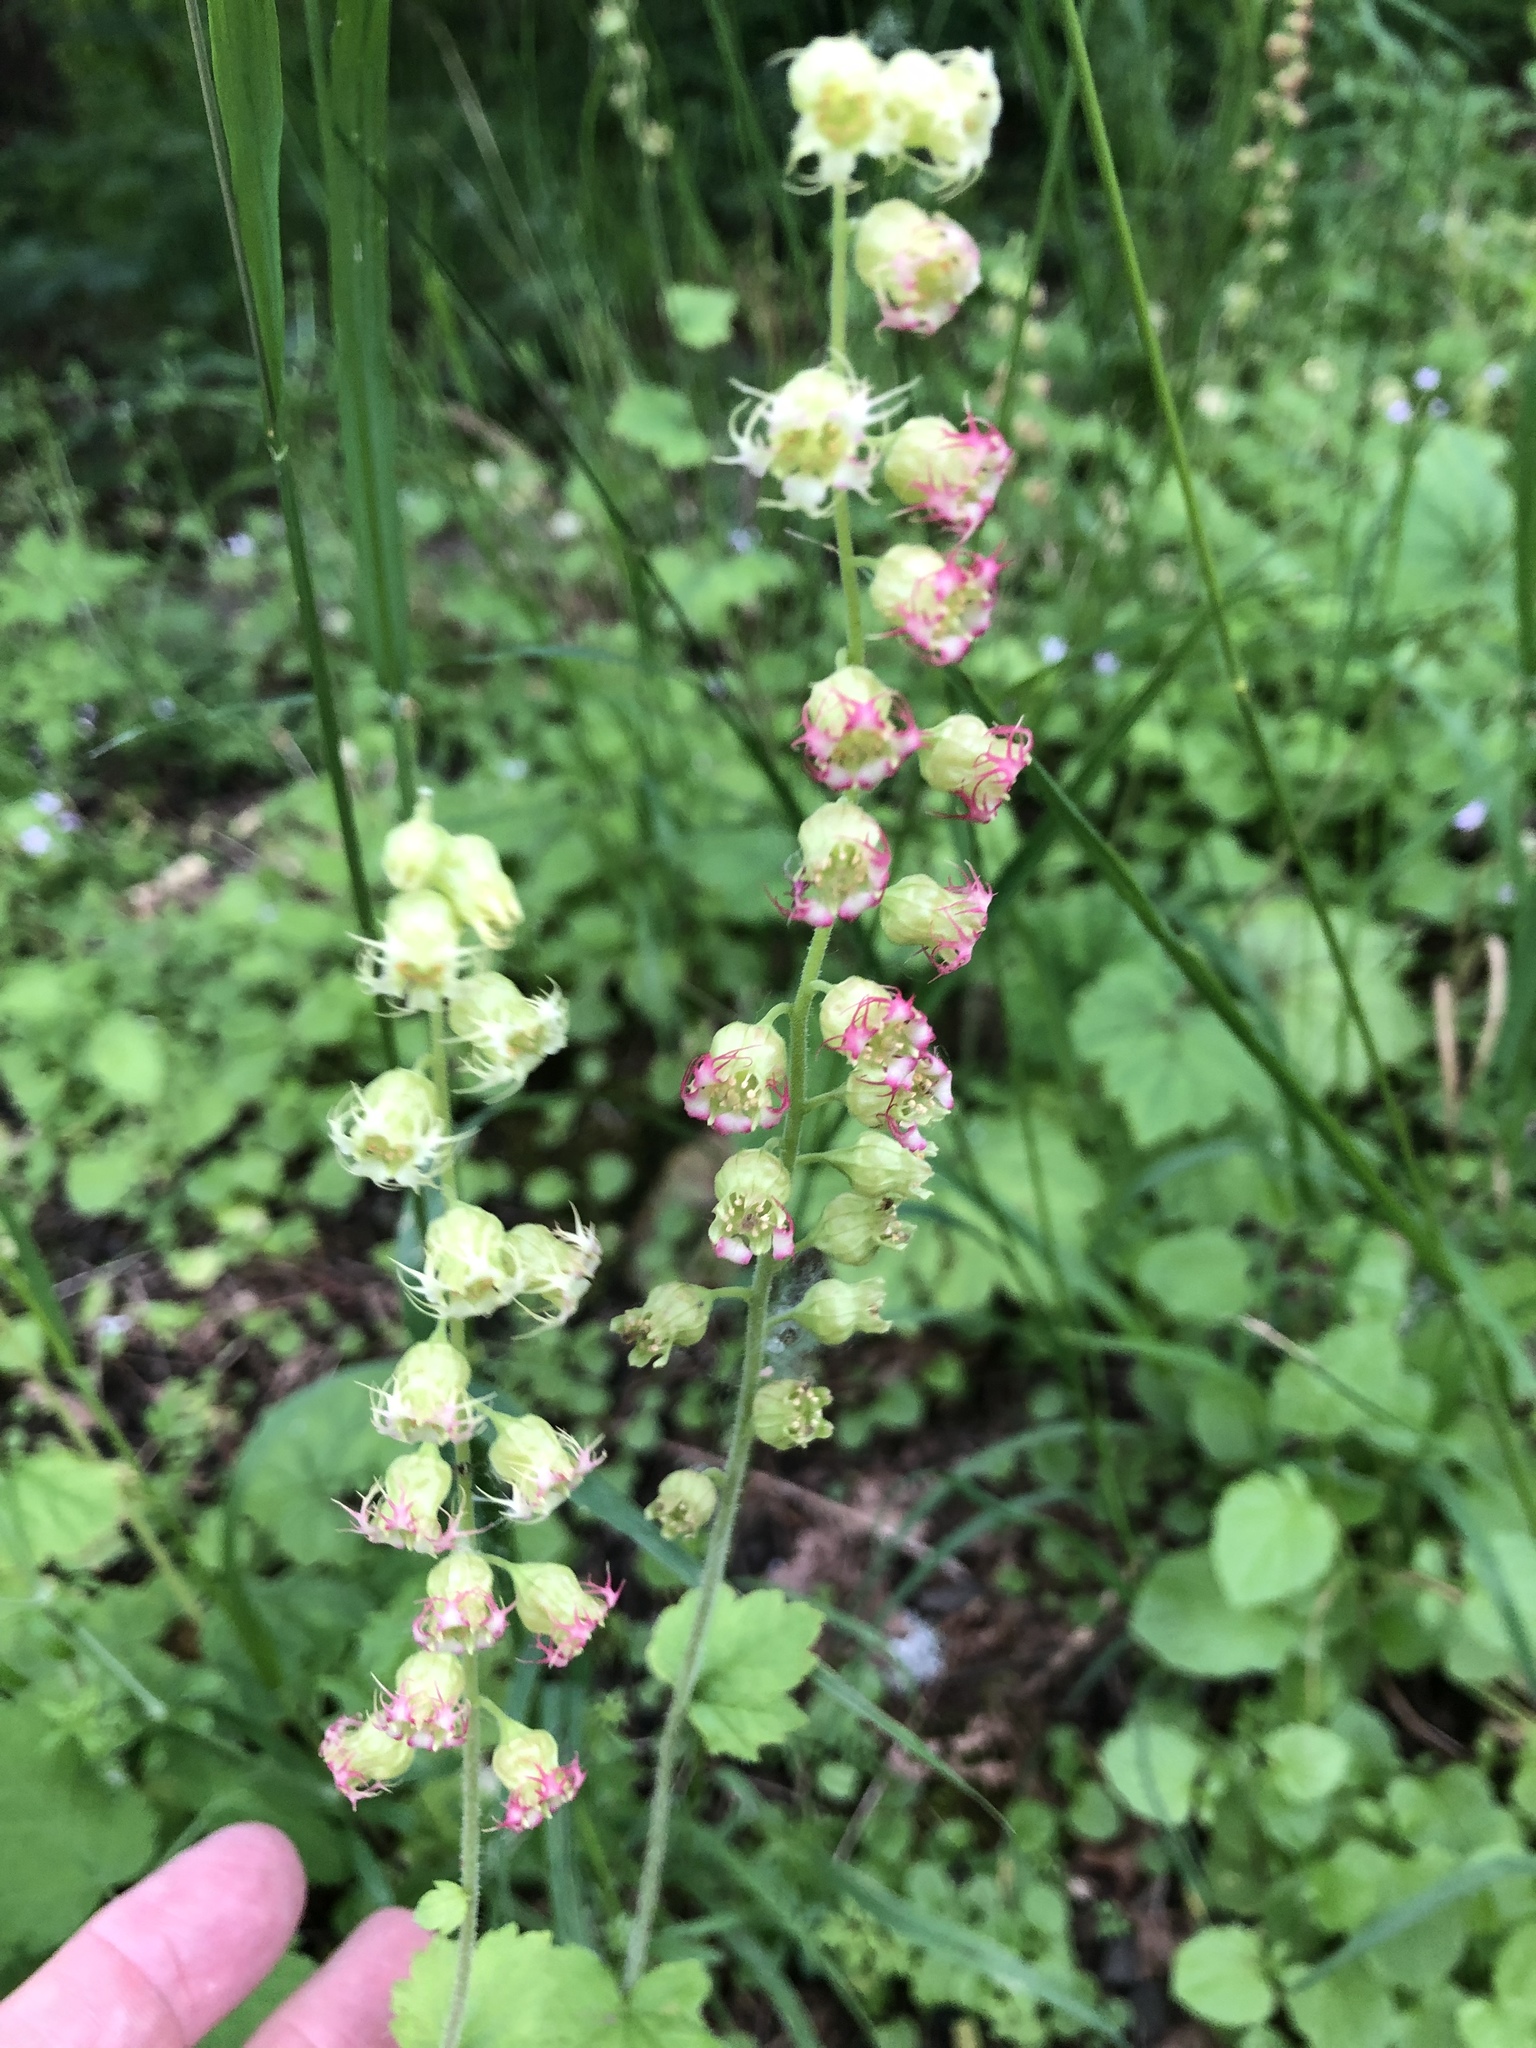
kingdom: Plantae
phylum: Tracheophyta
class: Magnoliopsida
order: Saxifragales
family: Saxifragaceae
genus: Tellima
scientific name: Tellima grandiflora
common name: Fringecups
